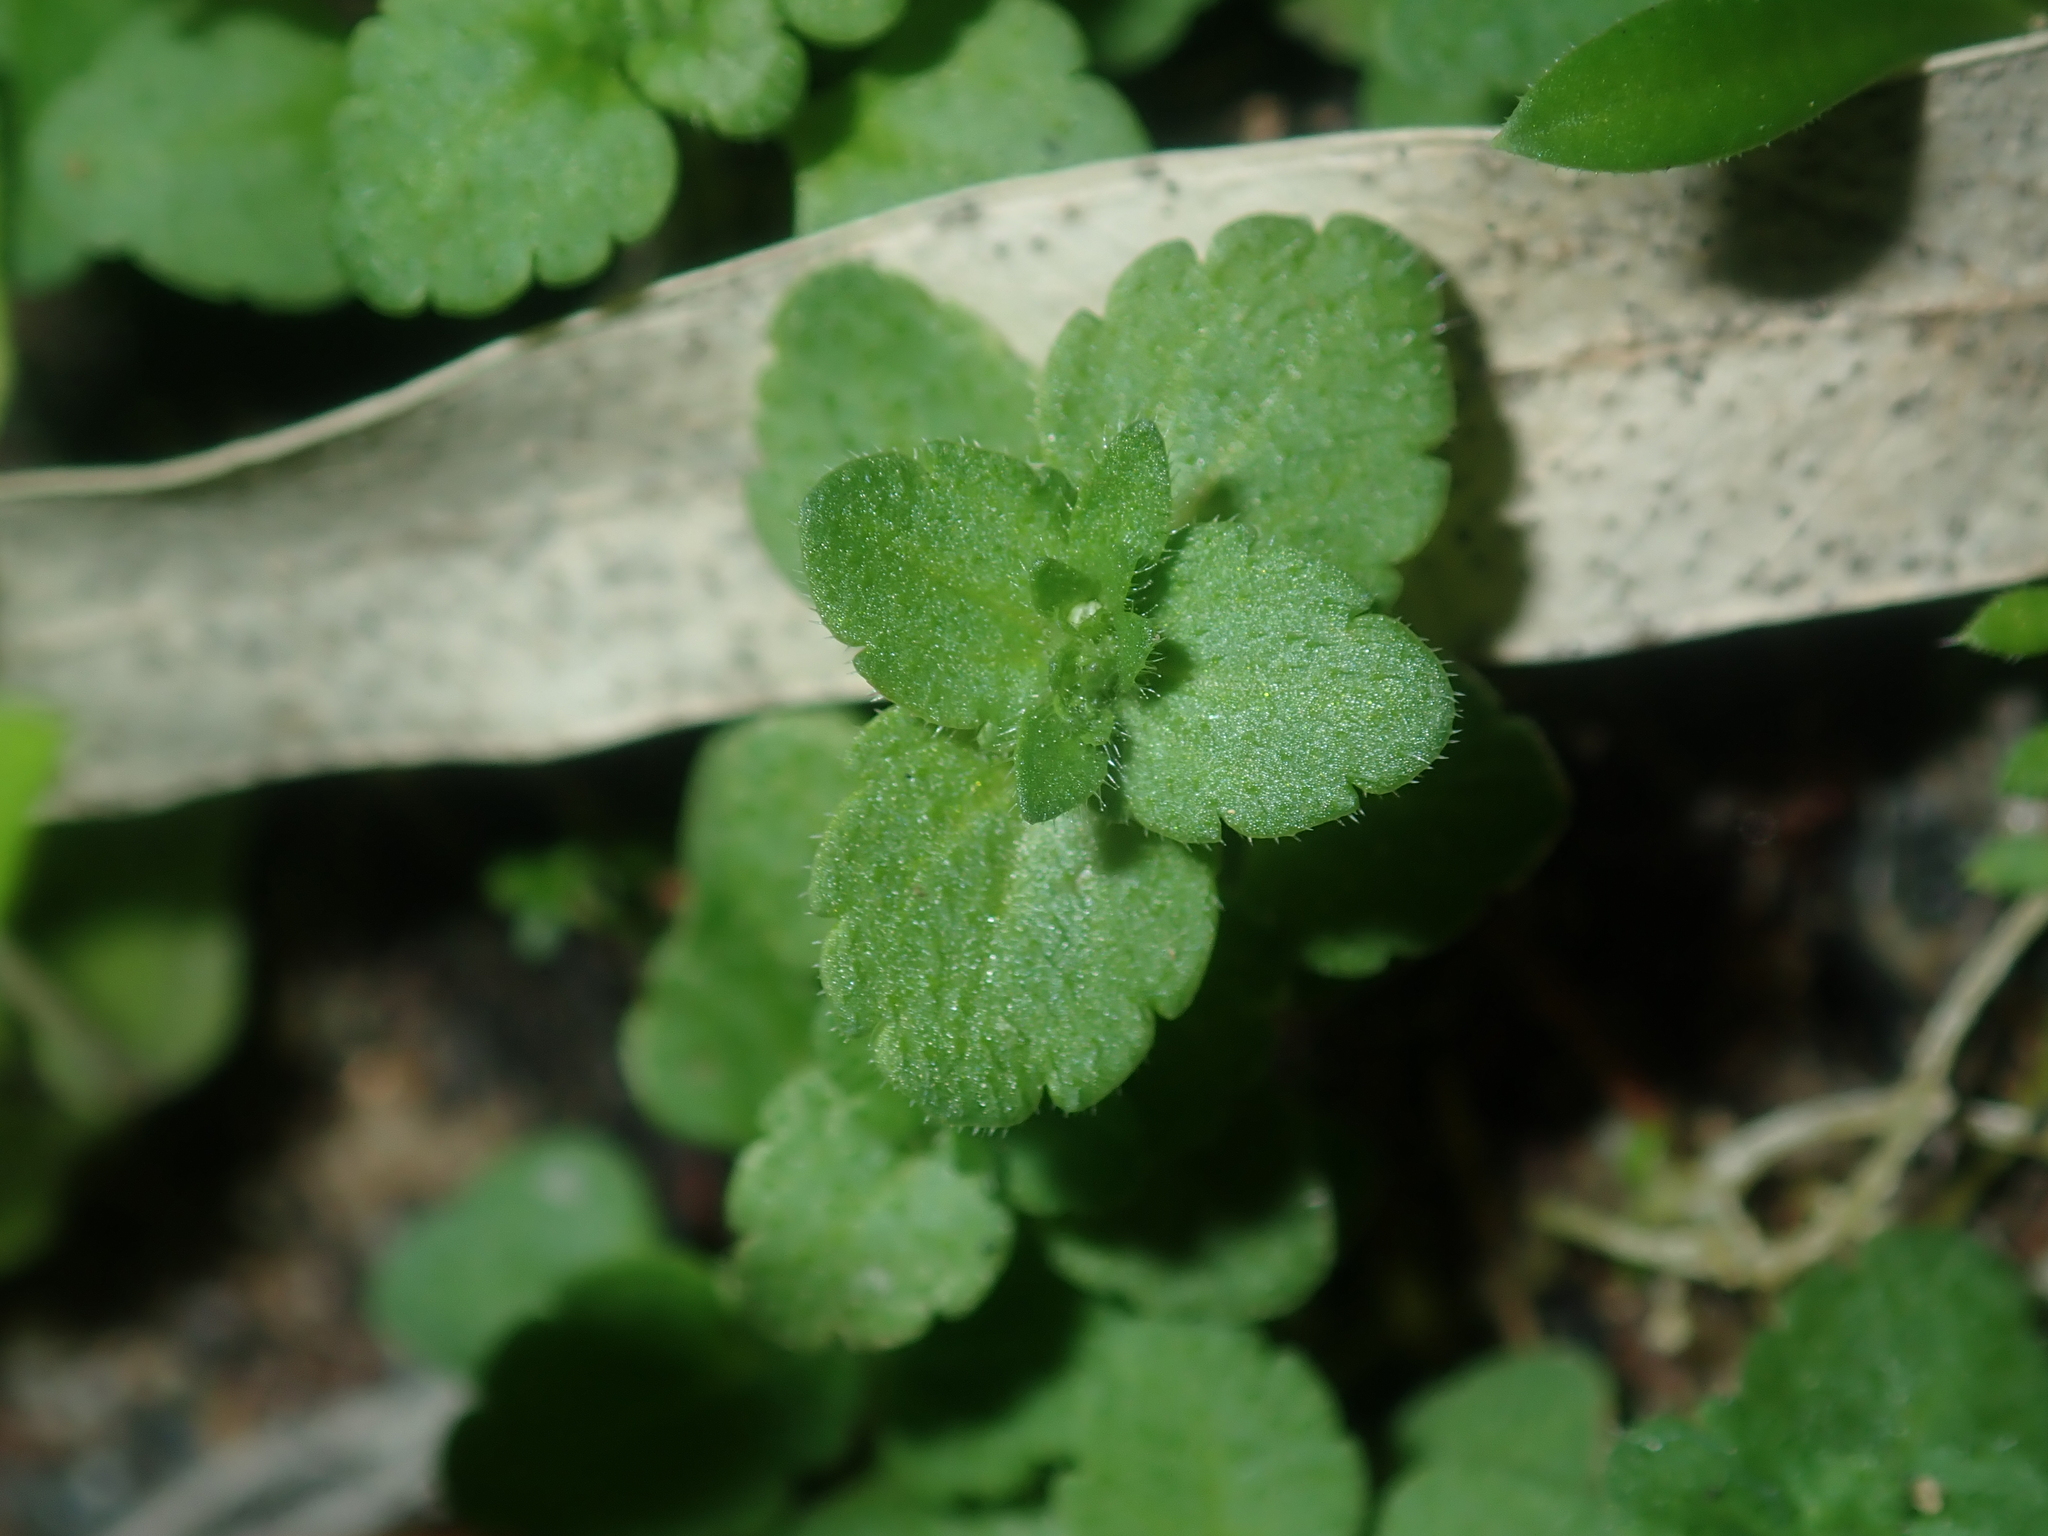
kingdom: Plantae
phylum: Tracheophyta
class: Magnoliopsida
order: Lamiales
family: Plantaginaceae
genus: Veronica
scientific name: Veronica persica
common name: Common field-speedwell
